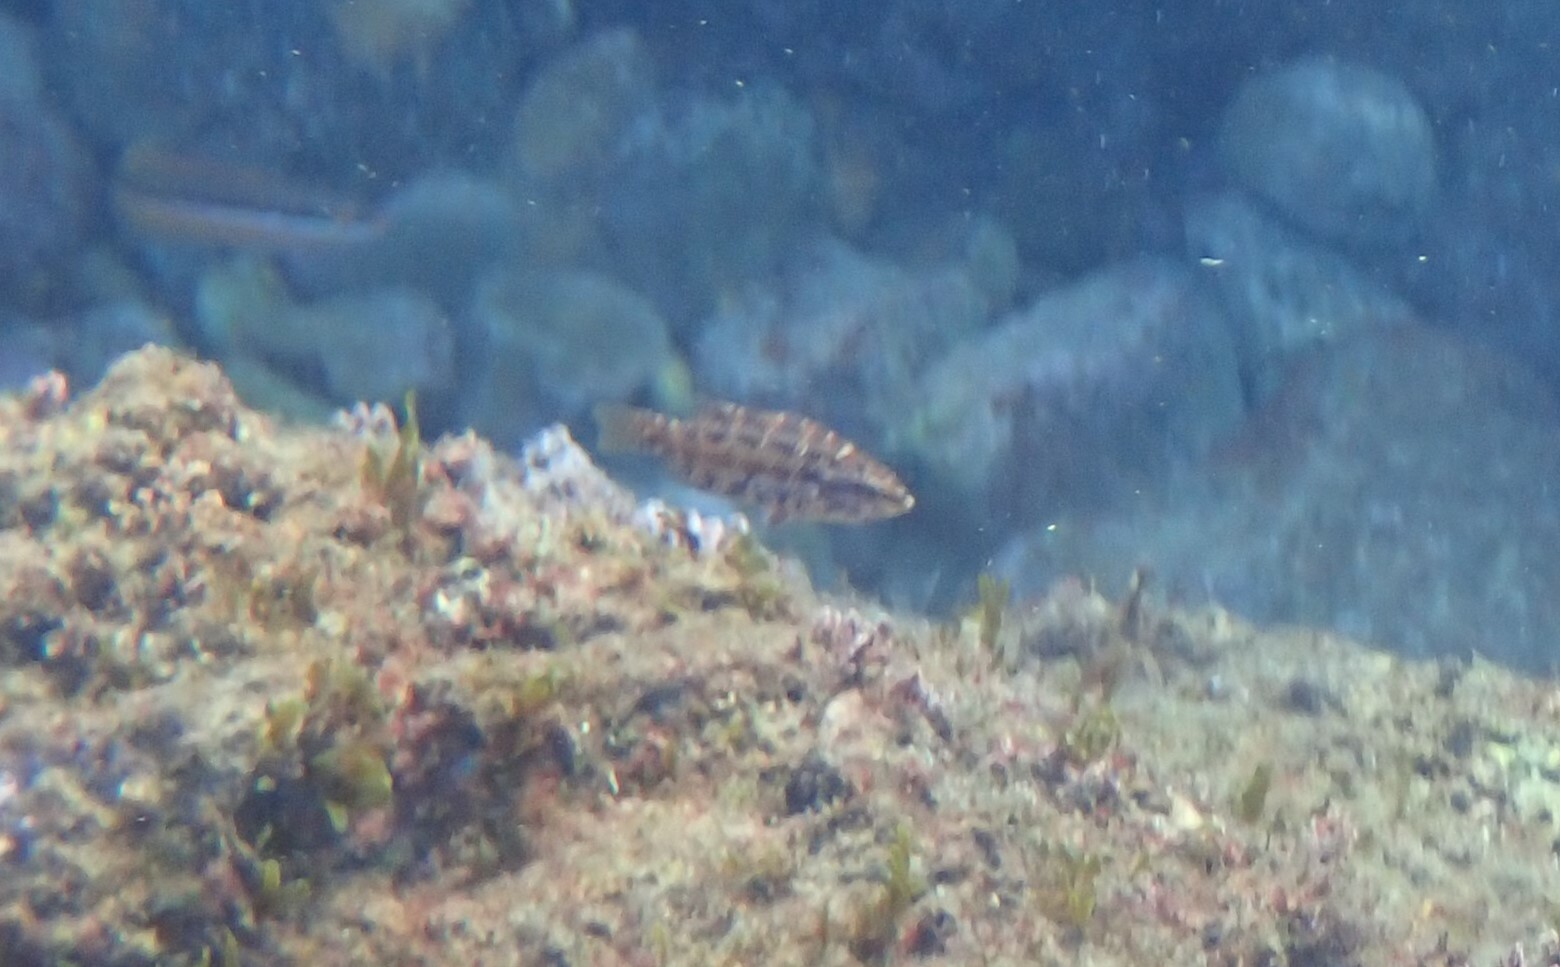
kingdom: Animalia
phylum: Chordata
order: Perciformes
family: Labridae
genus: Symphodus
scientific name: Symphodus roissali
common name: Five-spotted wrasse
